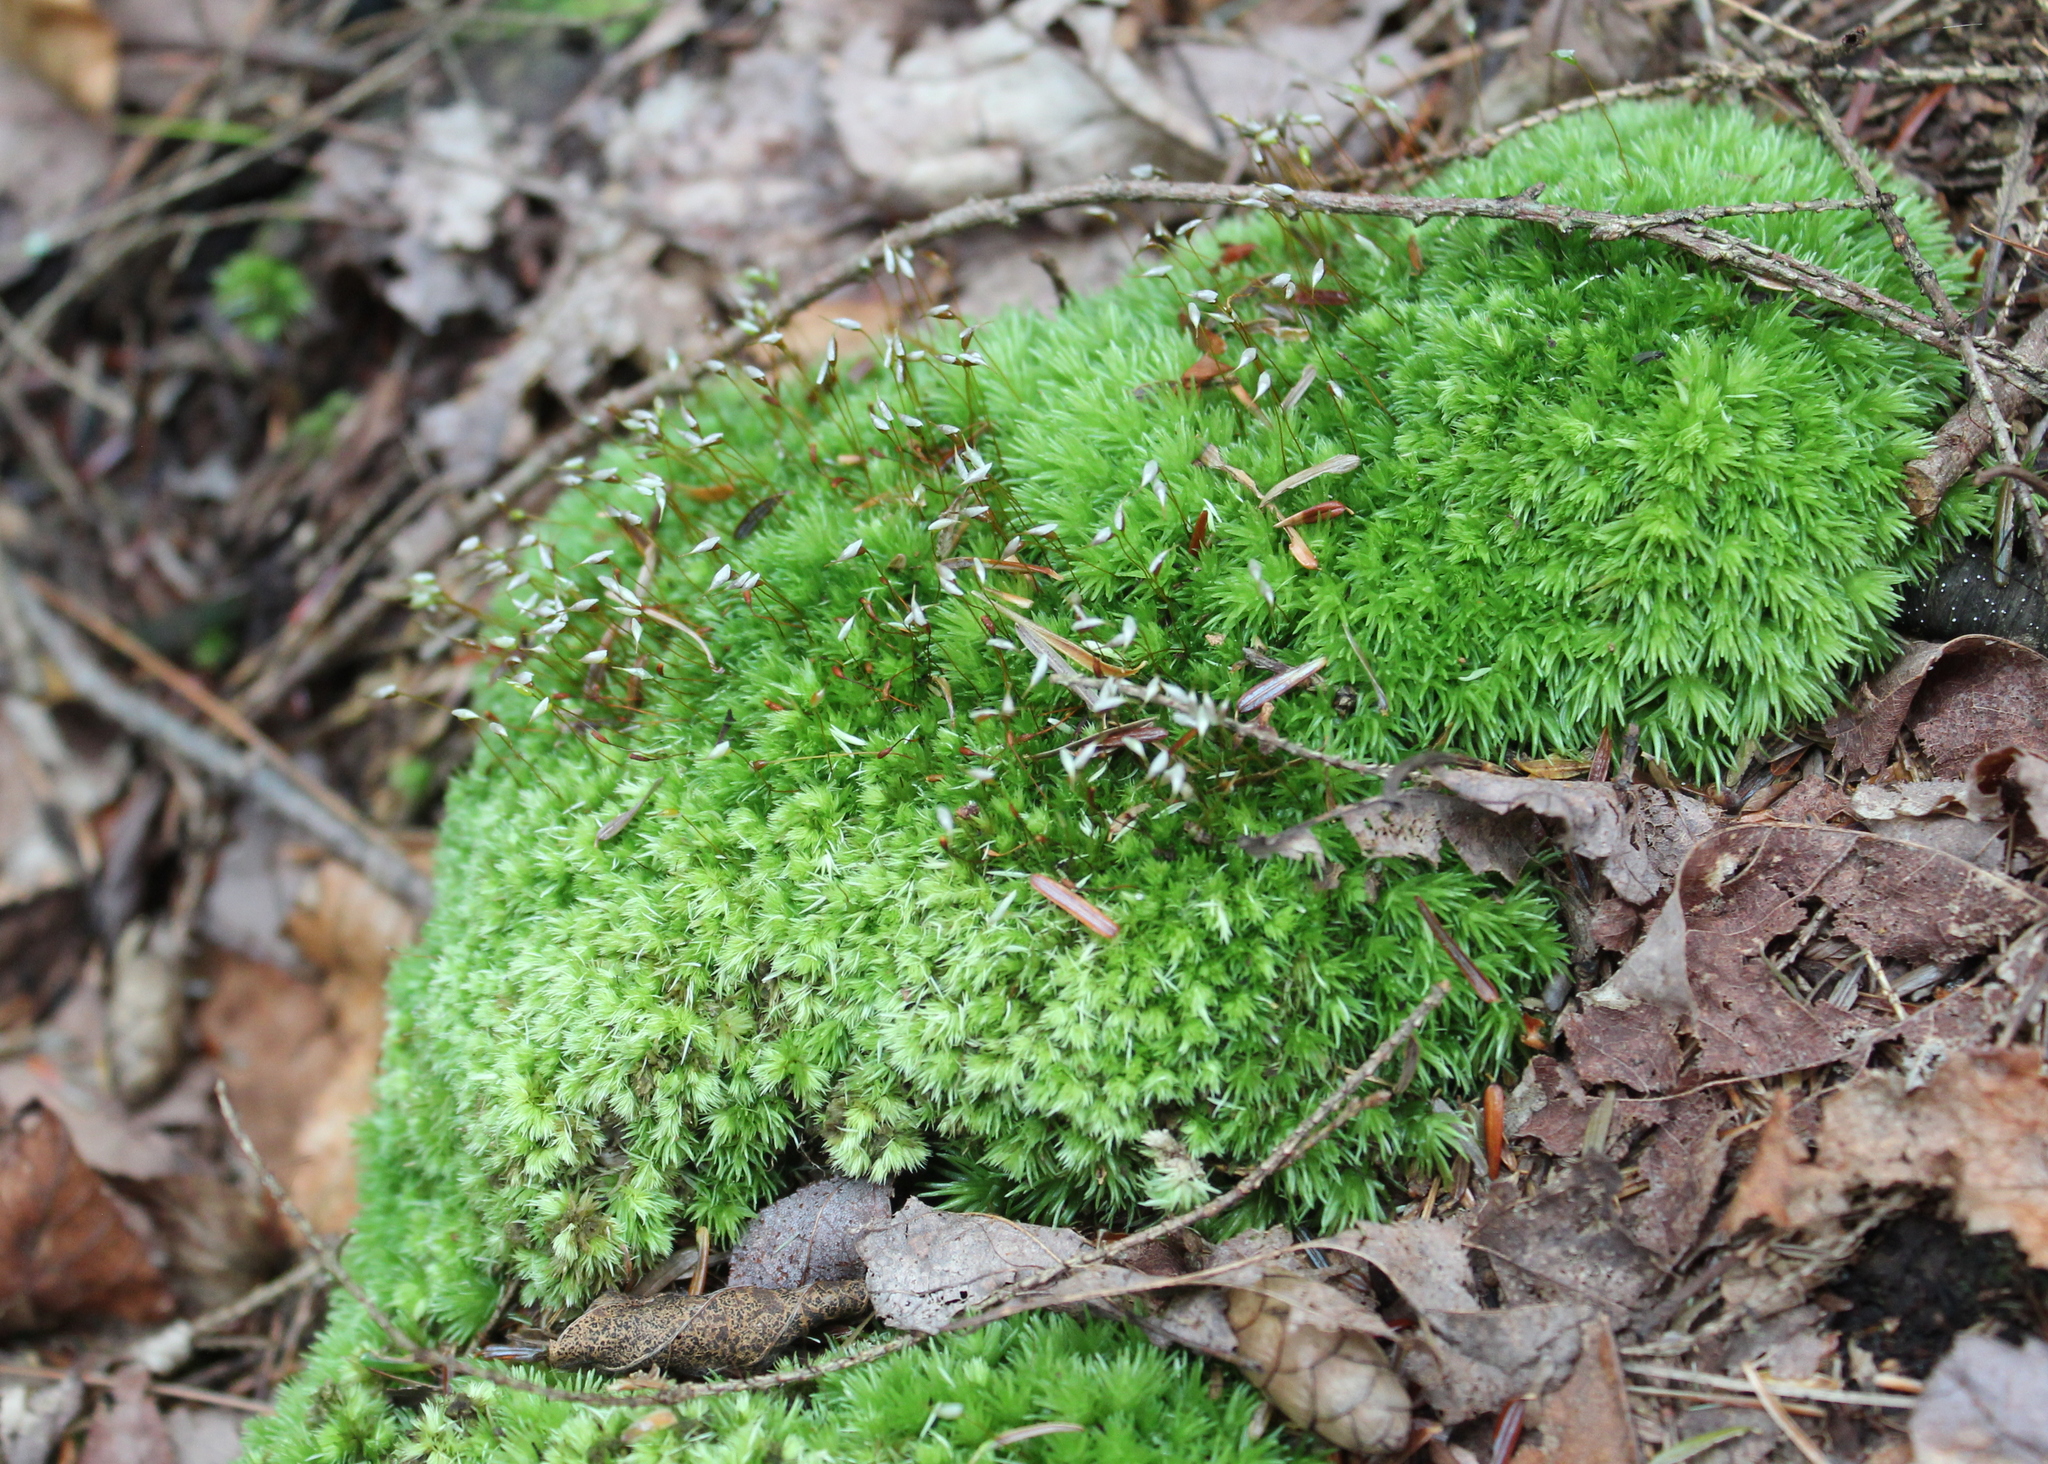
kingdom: Plantae
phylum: Bryophyta
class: Bryopsida
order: Dicranales
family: Leucobryaceae
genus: Leucobryum
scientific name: Leucobryum glaucum
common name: Large white-moss
